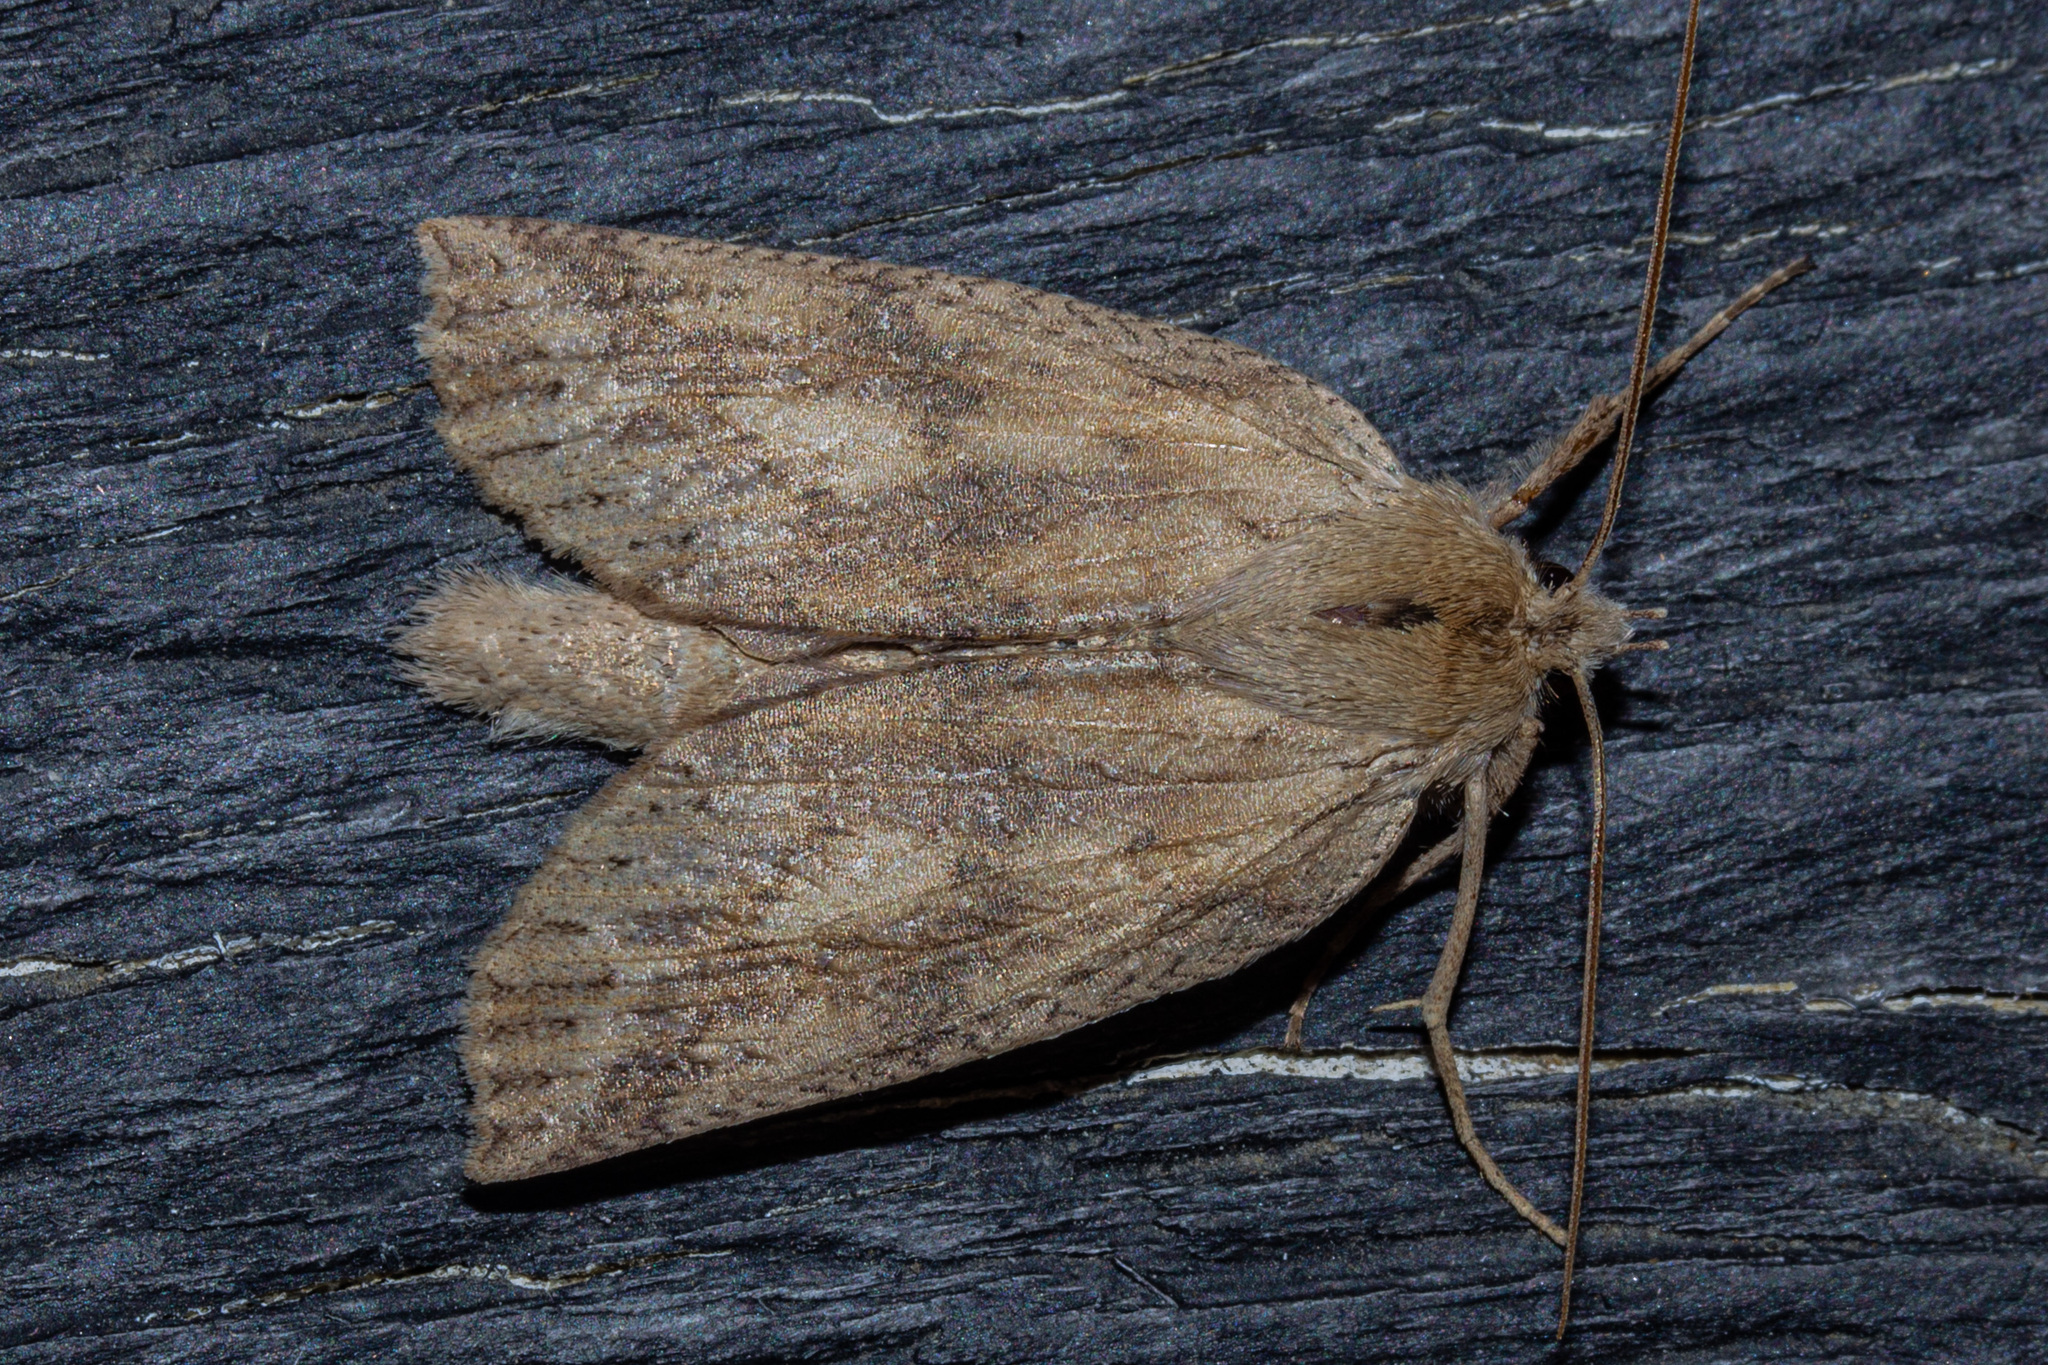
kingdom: Animalia
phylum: Arthropoda
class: Insecta
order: Lepidoptera
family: Geometridae
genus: Declana
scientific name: Declana leptomera
